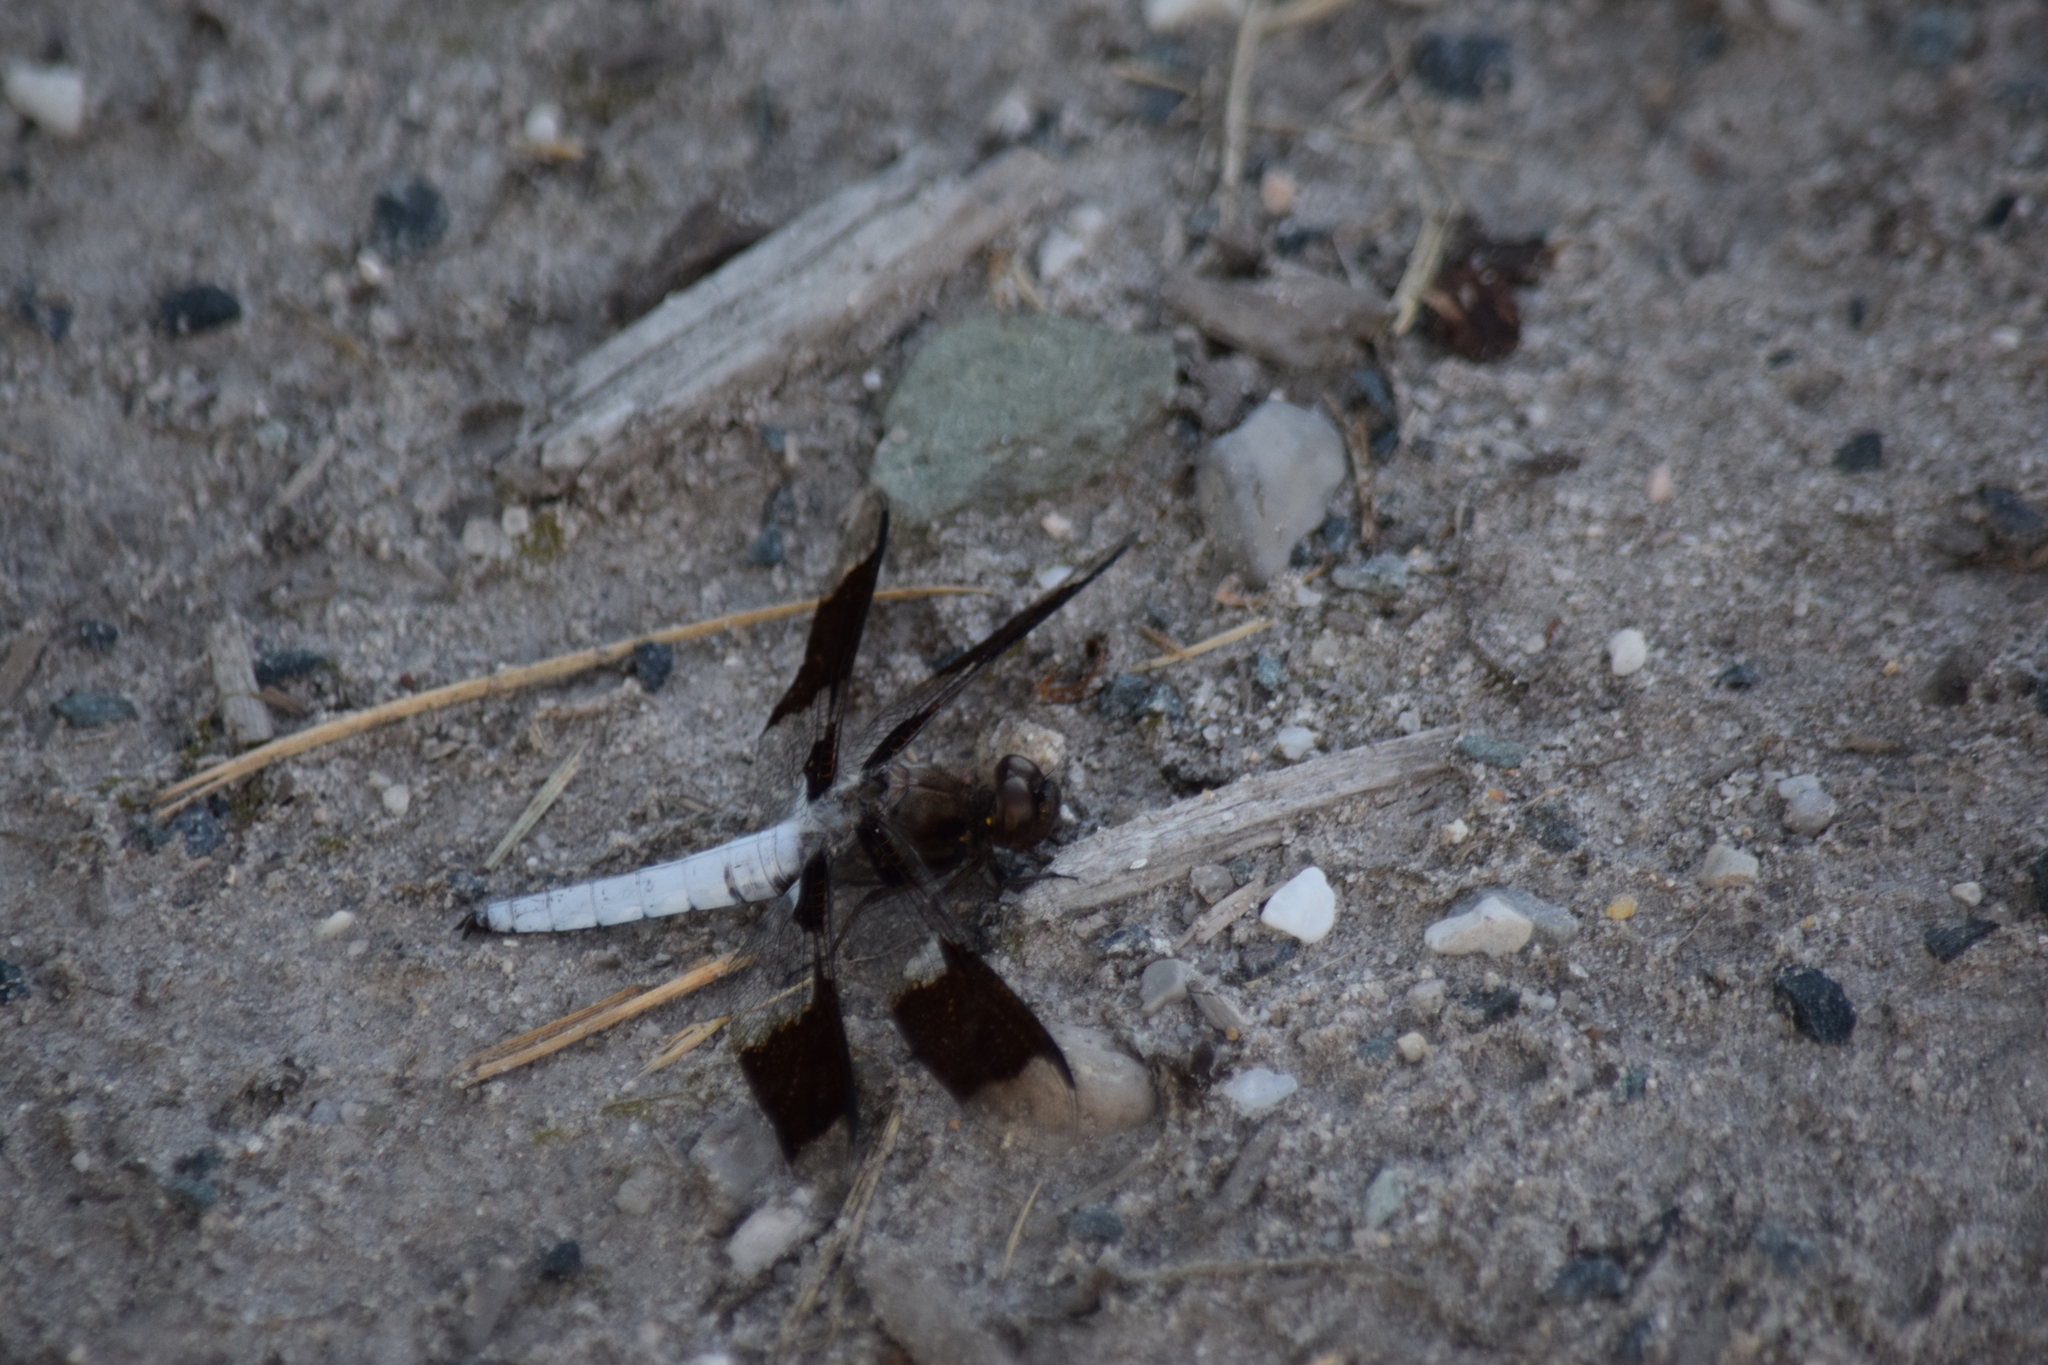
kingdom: Animalia
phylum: Arthropoda
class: Insecta
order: Odonata
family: Libellulidae
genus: Plathemis
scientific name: Plathemis lydia
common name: Common whitetail
